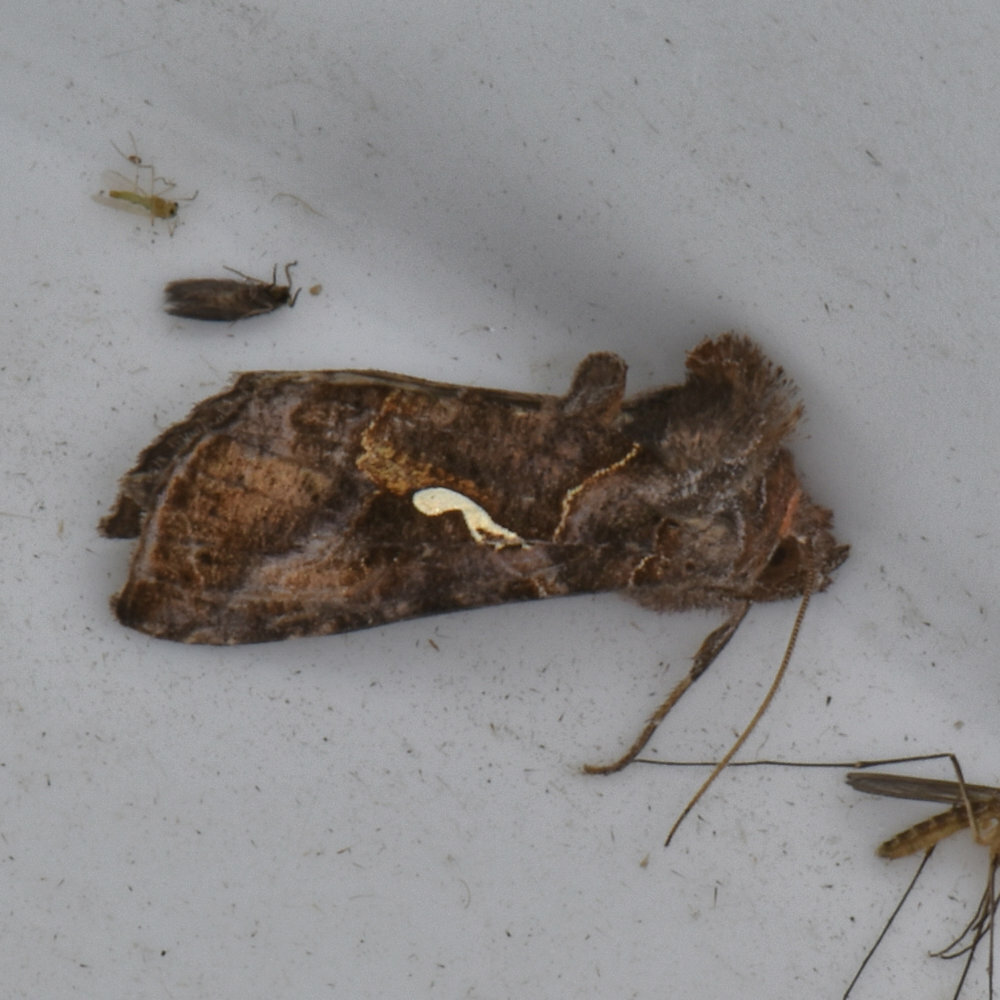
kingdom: Animalia
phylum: Arthropoda
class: Insecta
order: Lepidoptera
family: Noctuidae
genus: Autographa
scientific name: Autographa precationis
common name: Common looper moth
